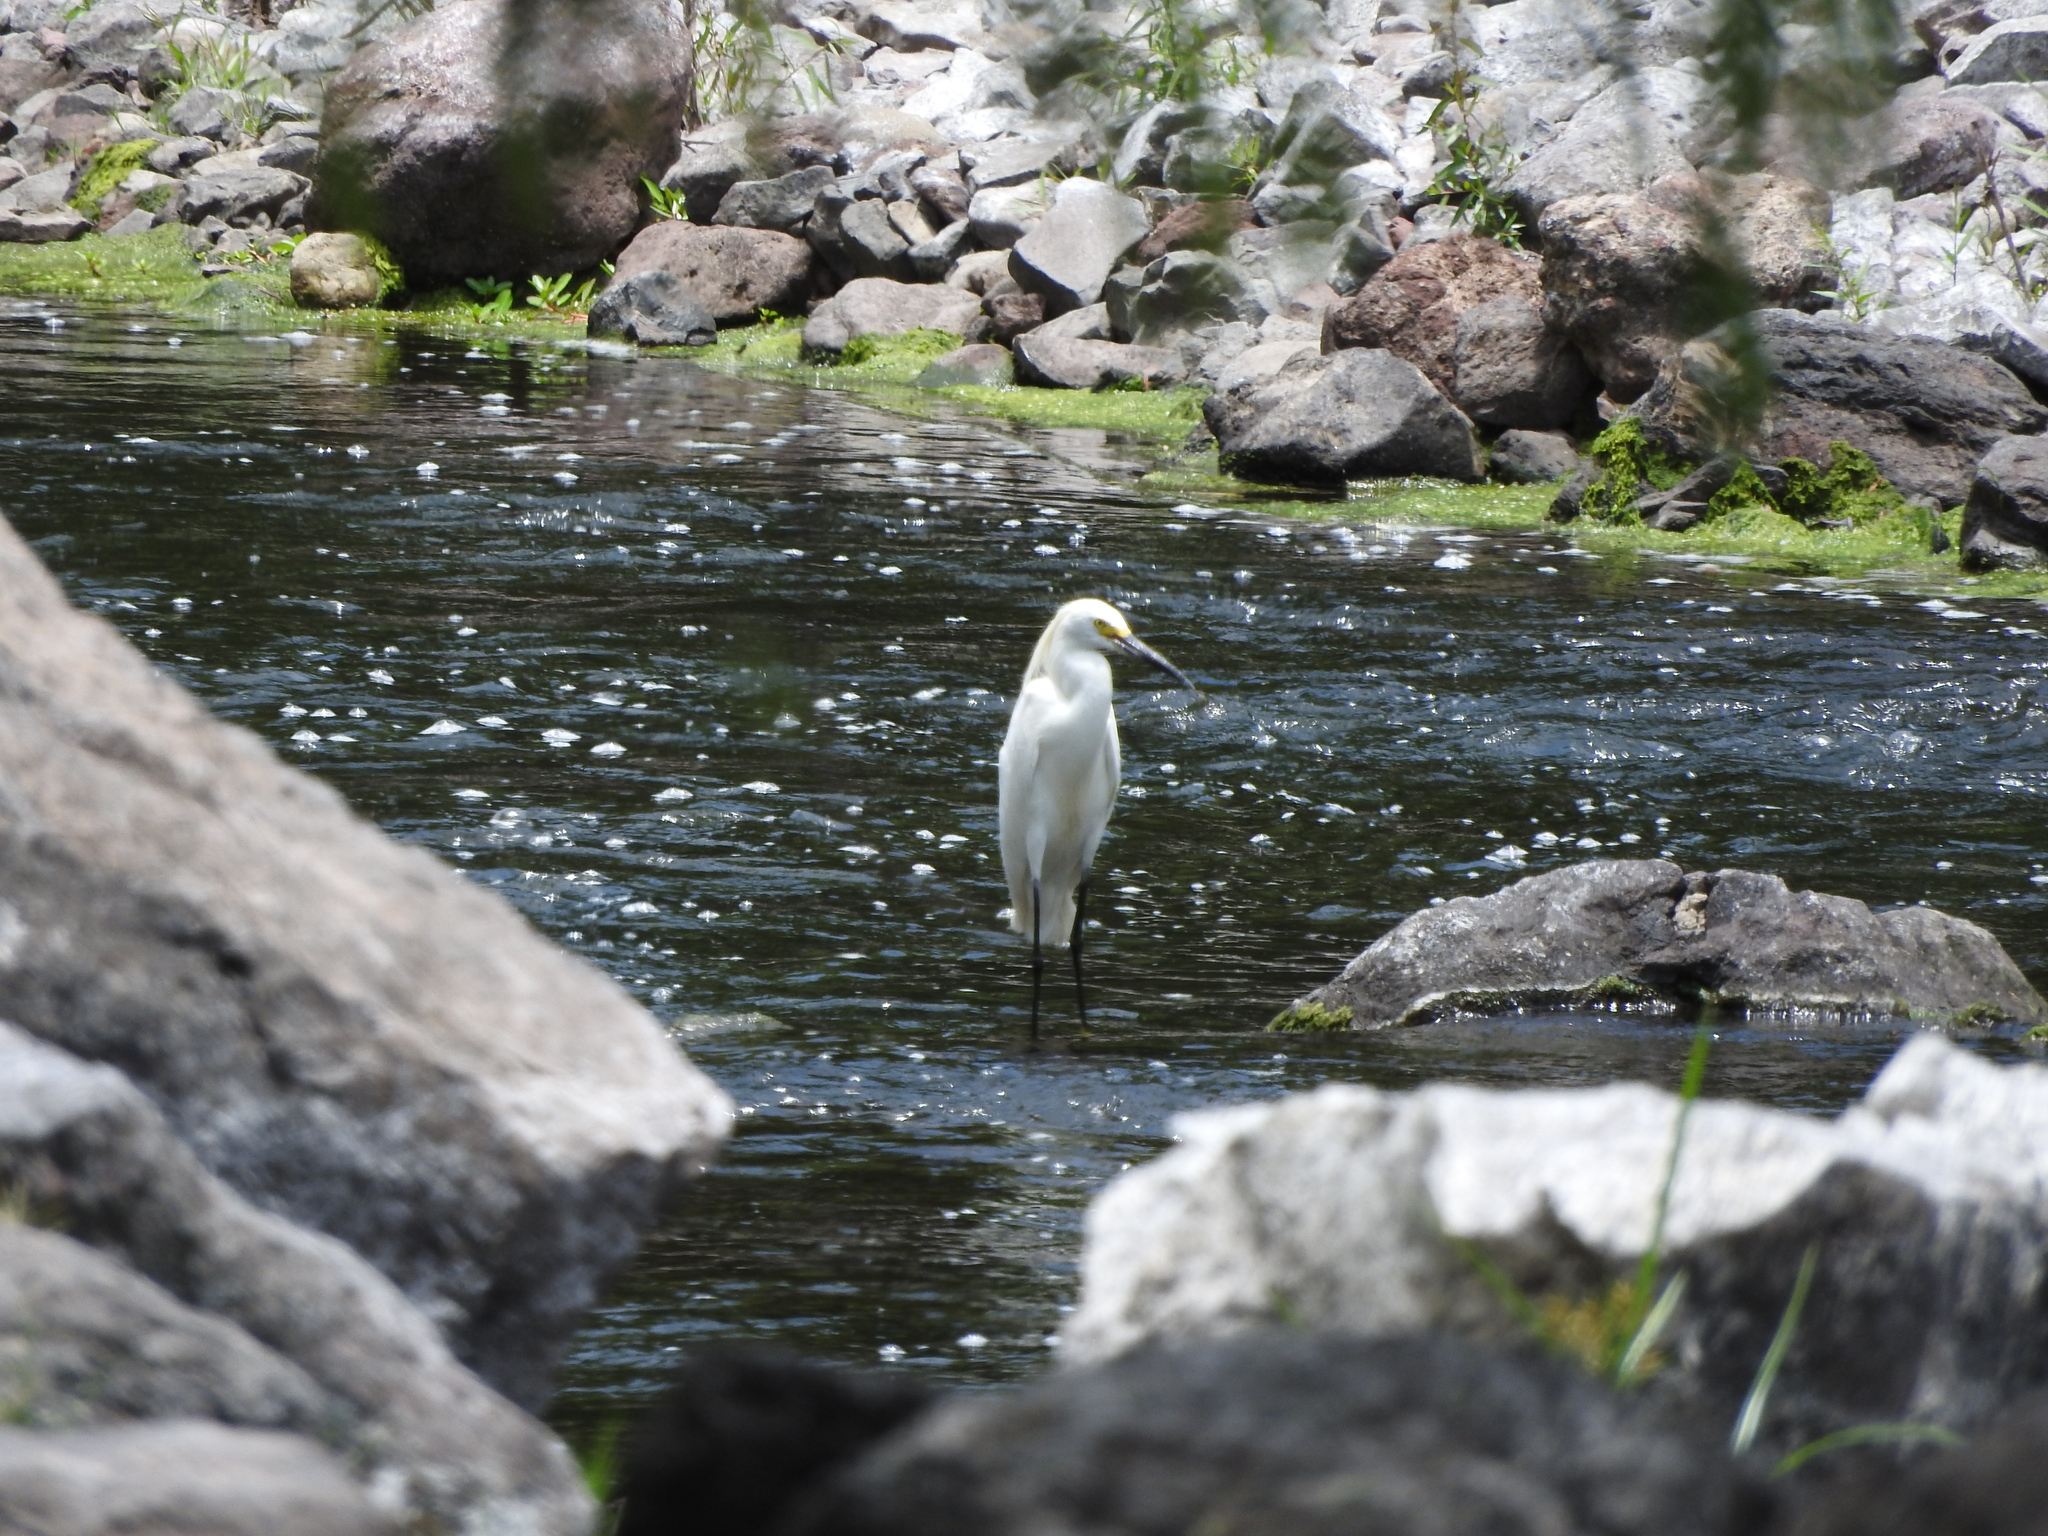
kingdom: Animalia
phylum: Chordata
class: Aves
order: Pelecaniformes
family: Ardeidae
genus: Egretta
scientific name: Egretta thula
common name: Snowy egret
